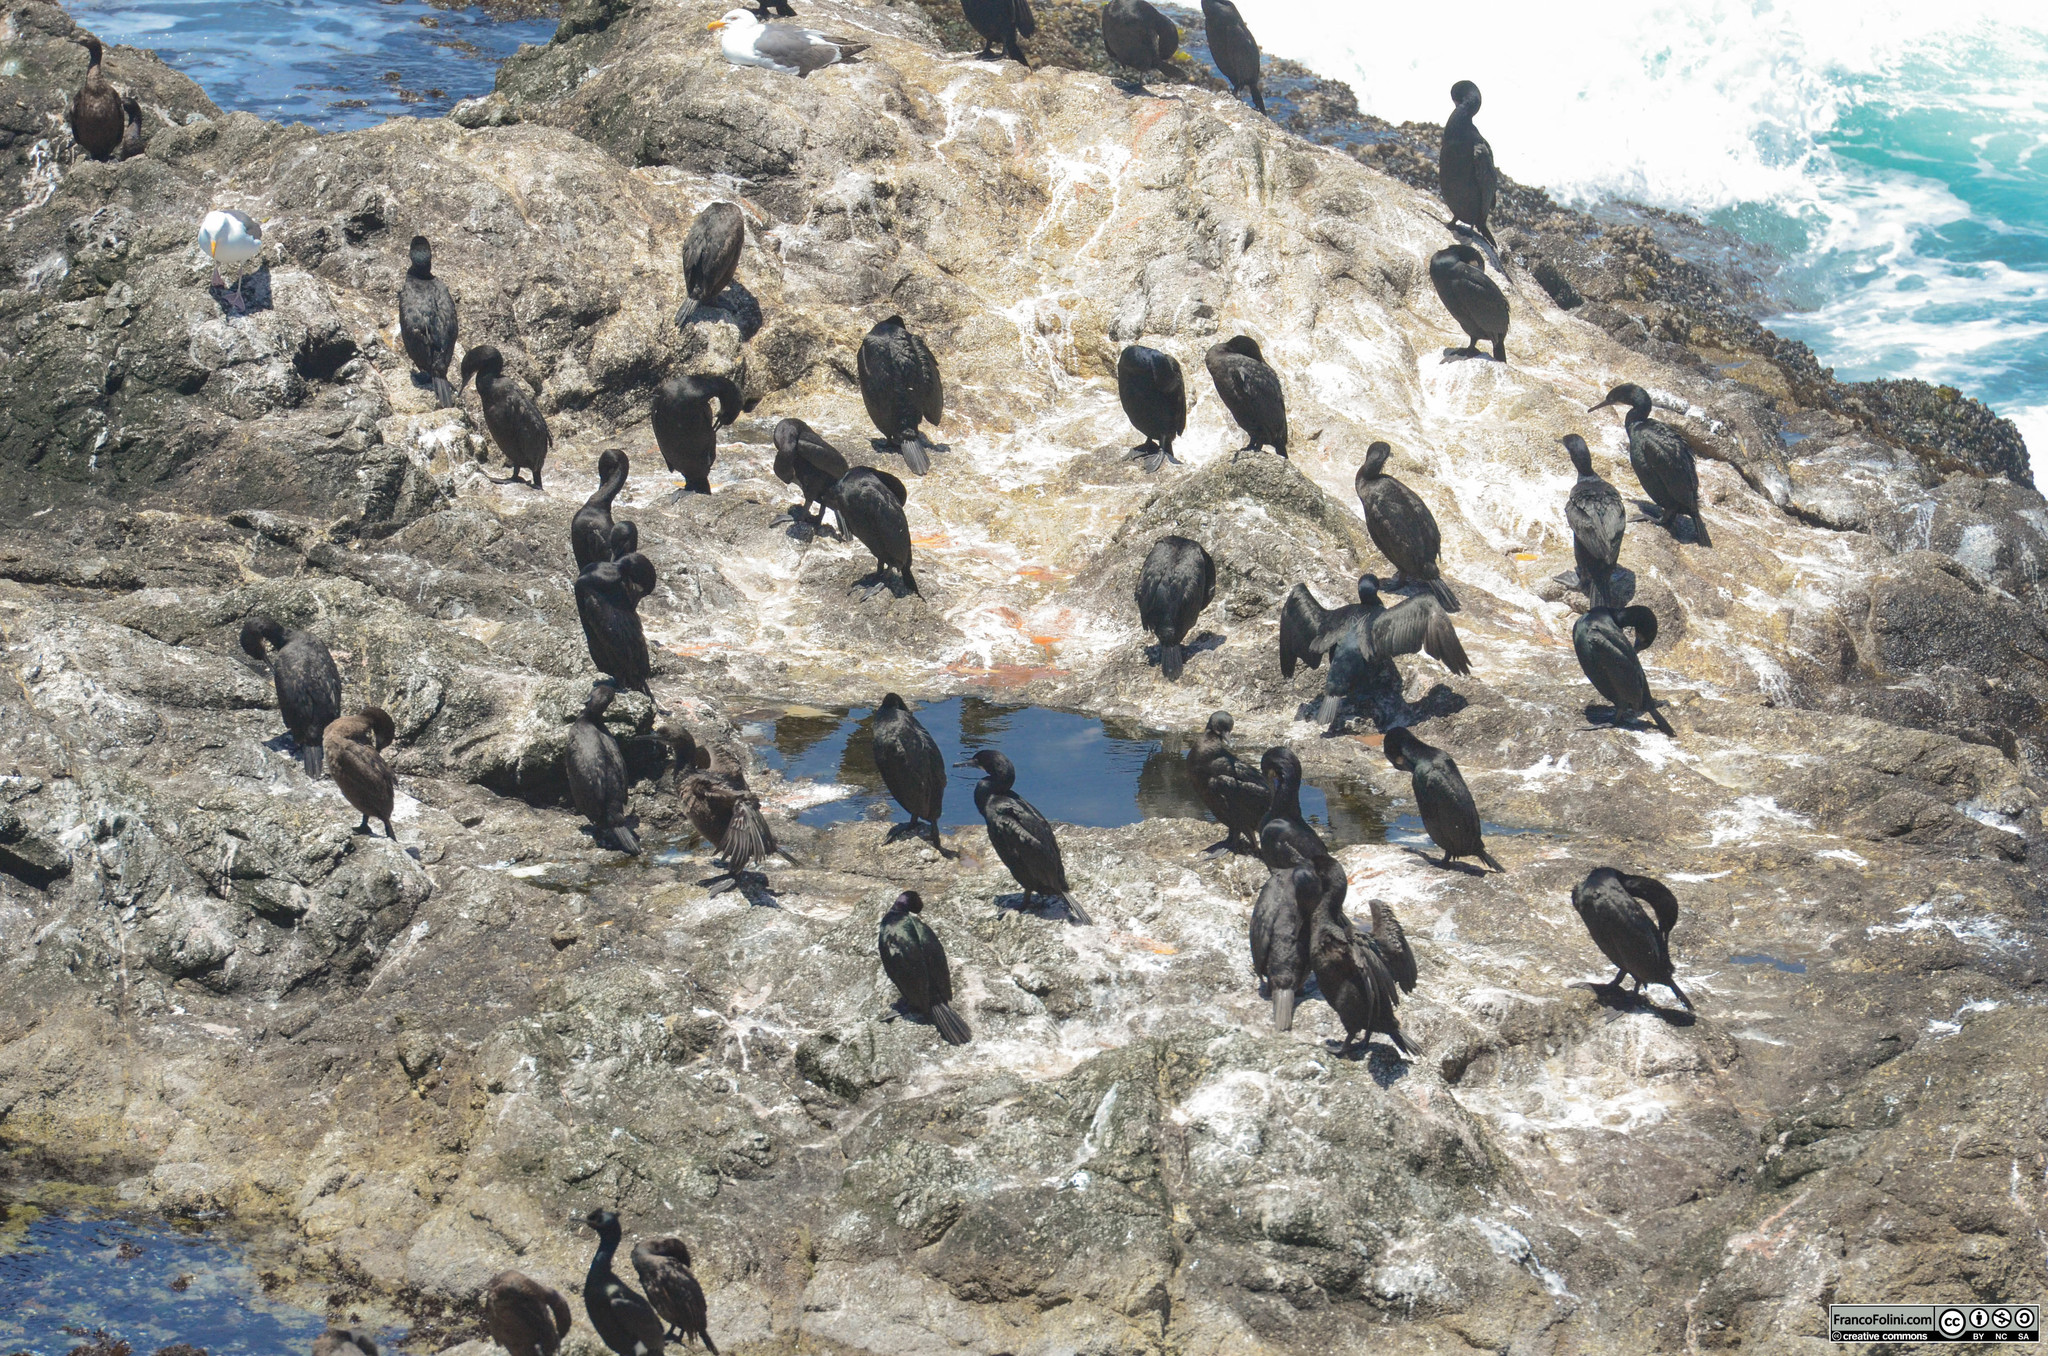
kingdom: Animalia
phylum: Chordata
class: Aves
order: Suliformes
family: Phalacrocoracidae
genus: Urile
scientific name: Urile penicillatus
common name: Brandt's cormorant
